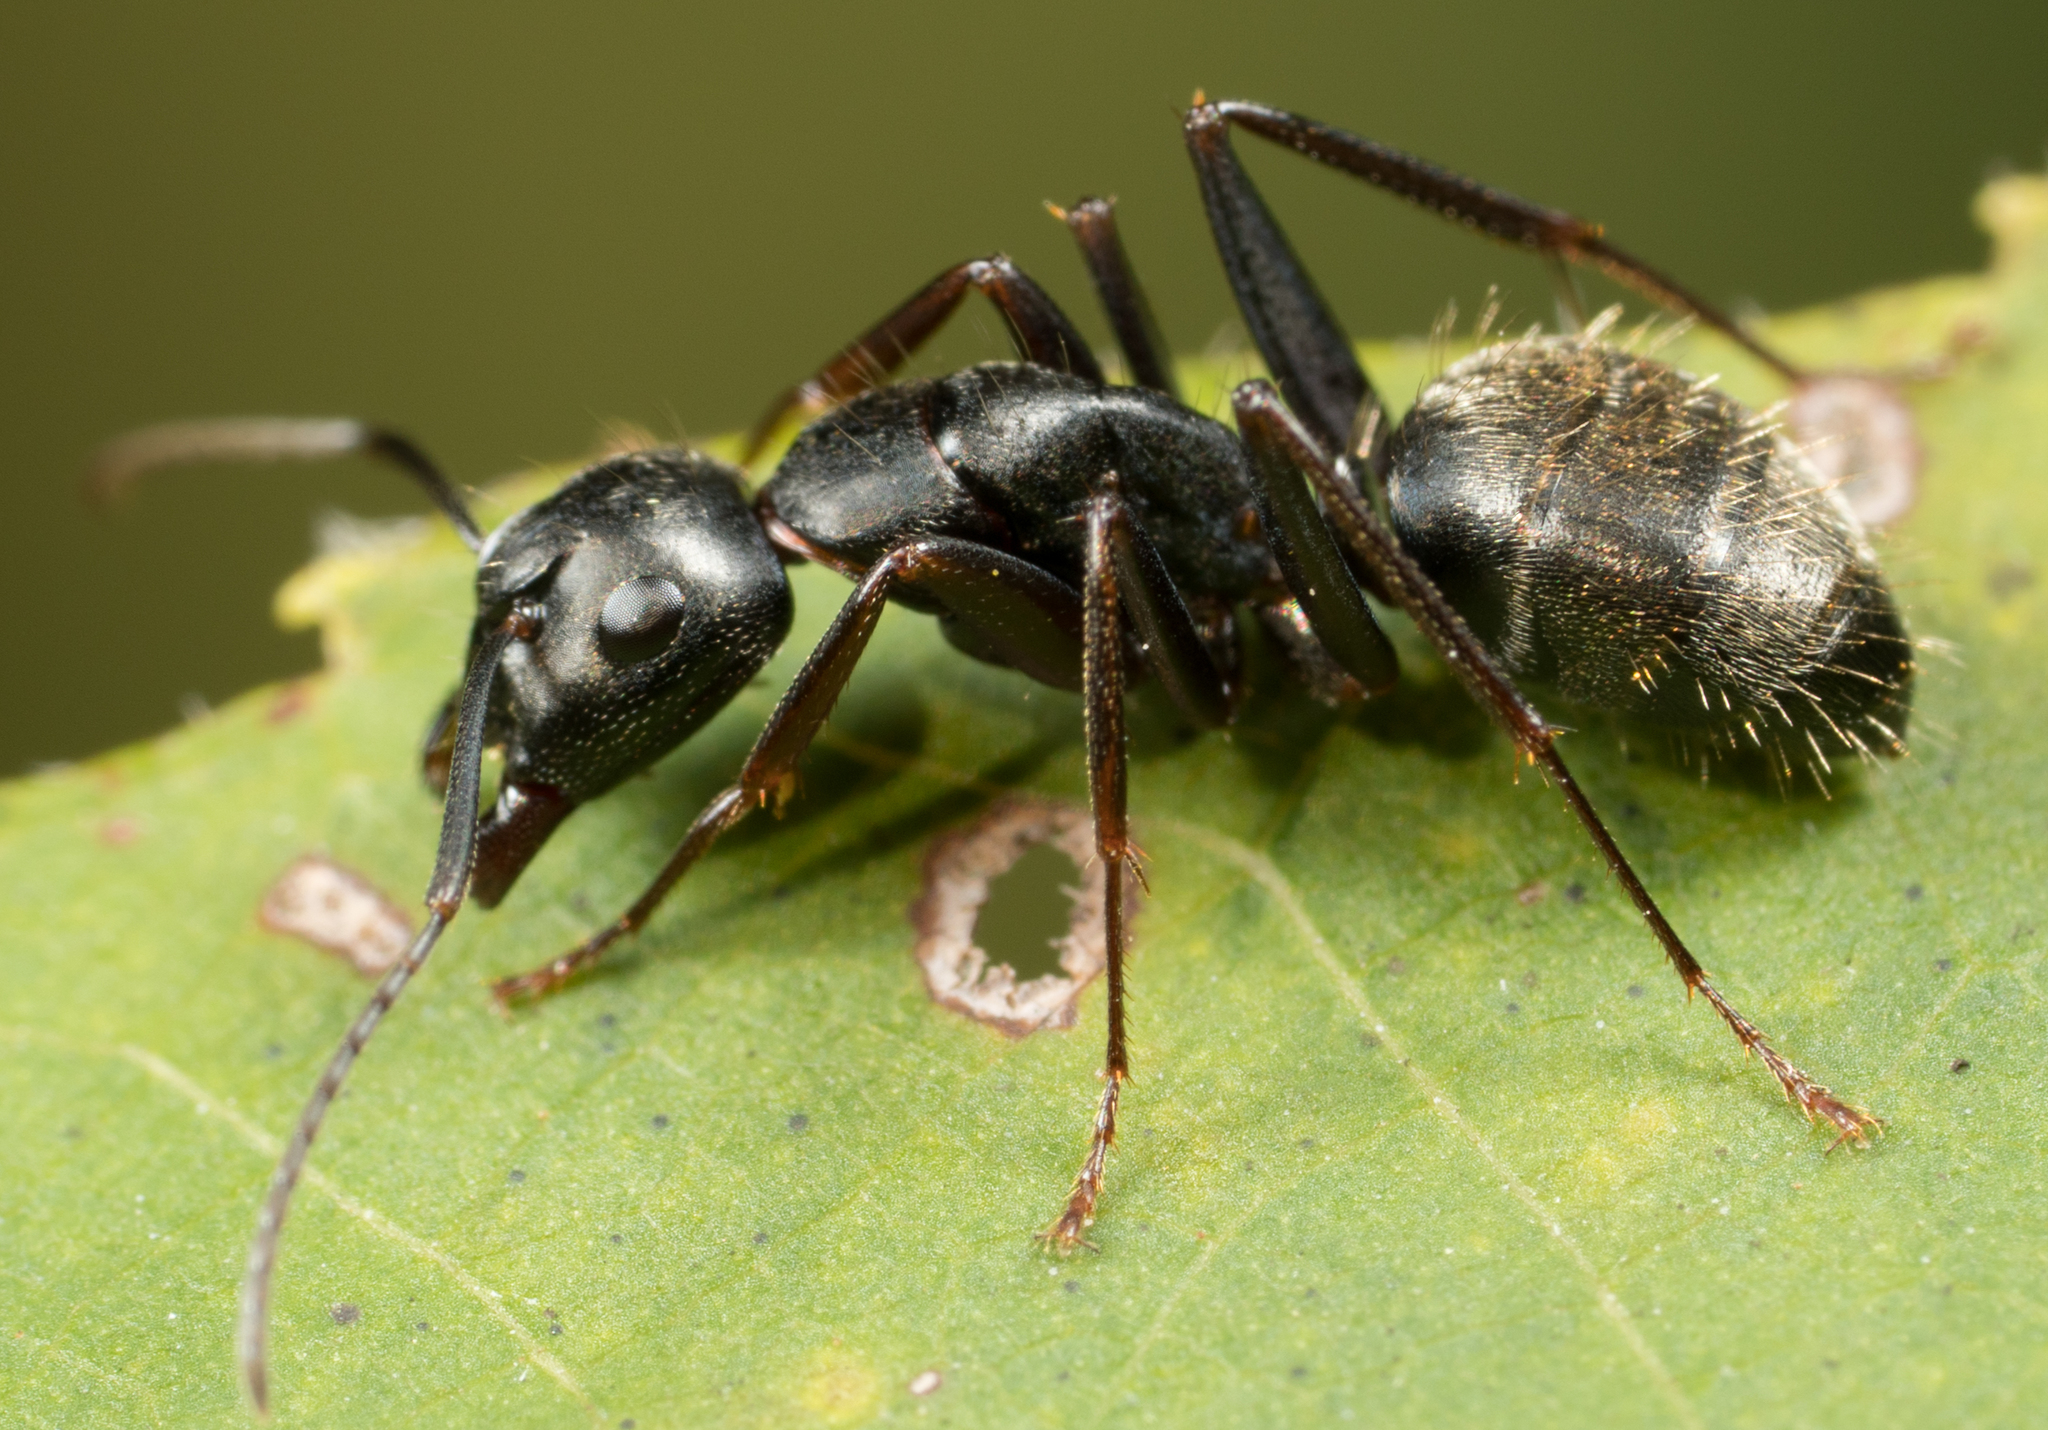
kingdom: Animalia
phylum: Arthropoda
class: Insecta
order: Hymenoptera
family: Formicidae
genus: Camponotus
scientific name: Camponotus pennsylvanicus
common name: Black carpenter ant
